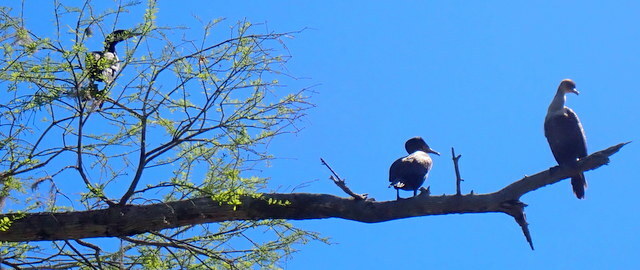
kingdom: Animalia
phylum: Chordata
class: Aves
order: Suliformes
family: Phalacrocoracidae
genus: Phalacrocorax
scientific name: Phalacrocorax auritus
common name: Double-crested cormorant
